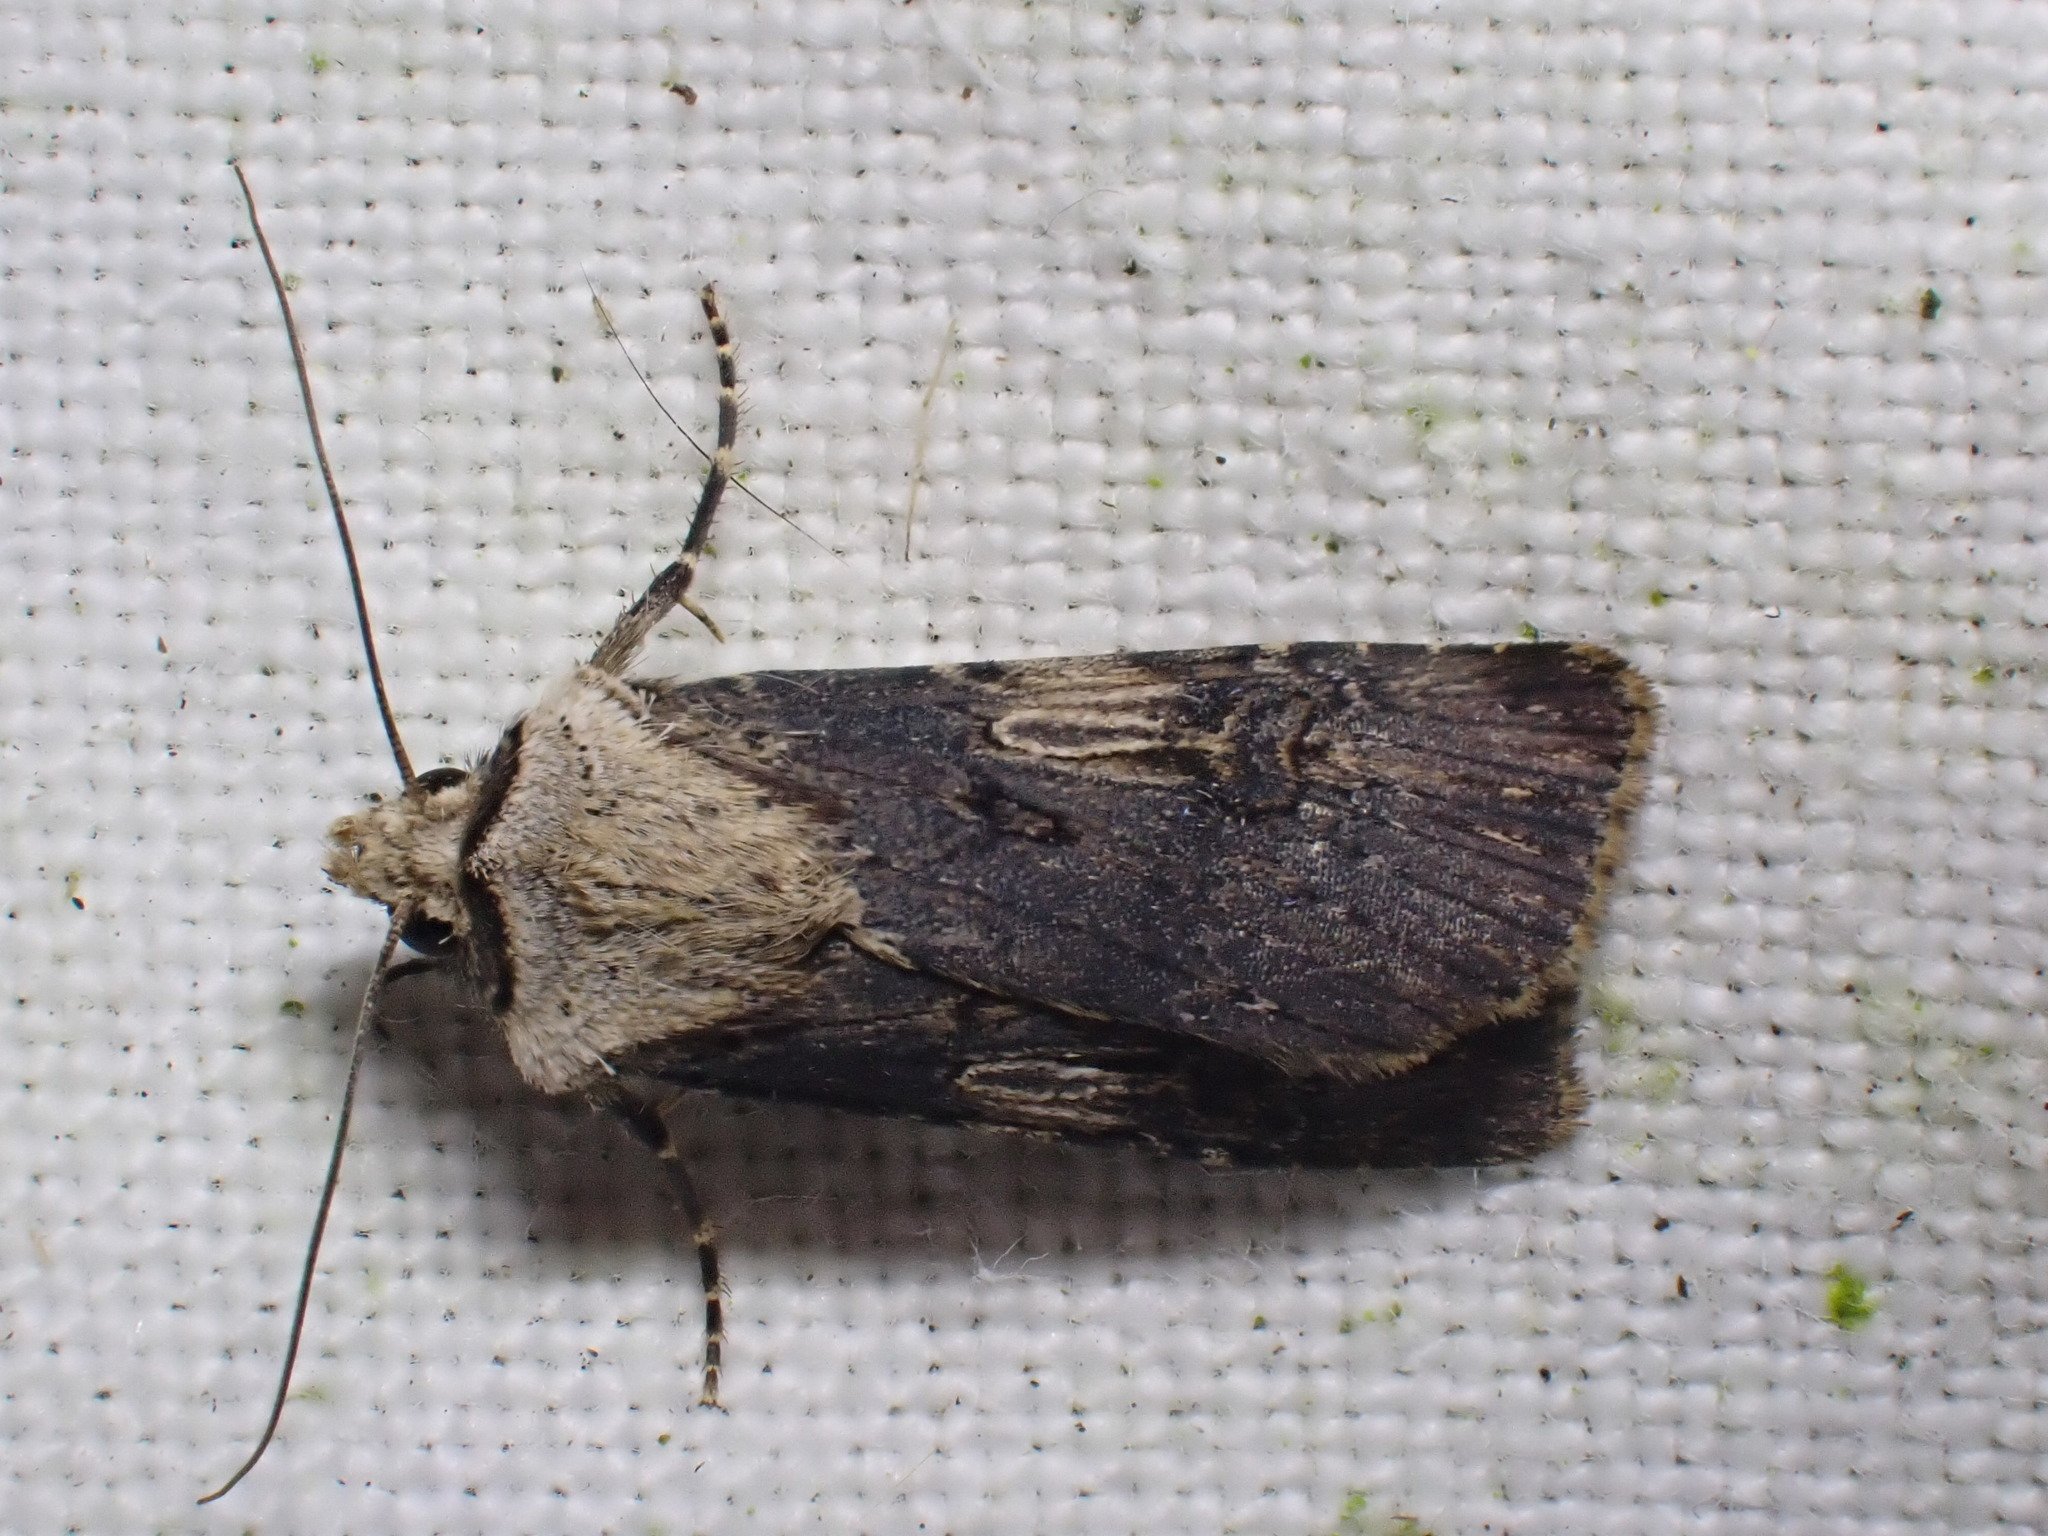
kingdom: Animalia
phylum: Arthropoda
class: Insecta
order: Lepidoptera
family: Noctuidae
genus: Agrotis
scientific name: Agrotis puta
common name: Shuttle-shaped dart
